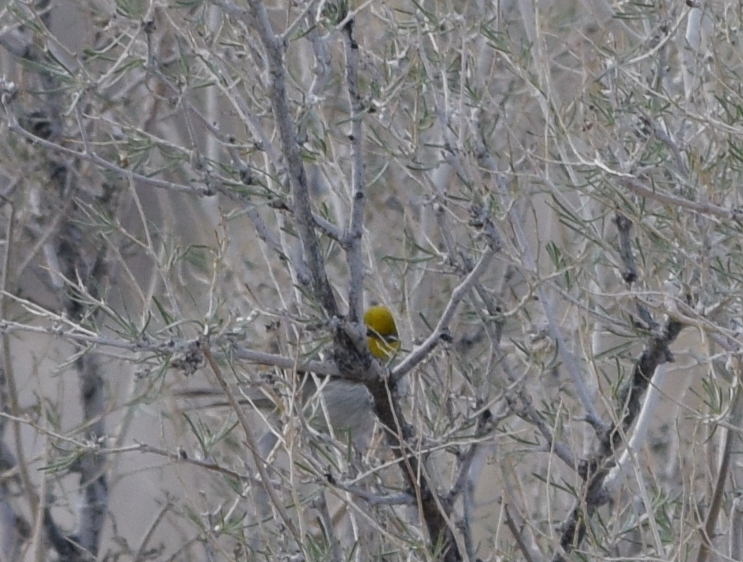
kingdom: Animalia
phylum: Chordata
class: Aves
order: Passeriformes
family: Remizidae
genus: Auriparus
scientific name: Auriparus flaviceps
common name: Verdin
